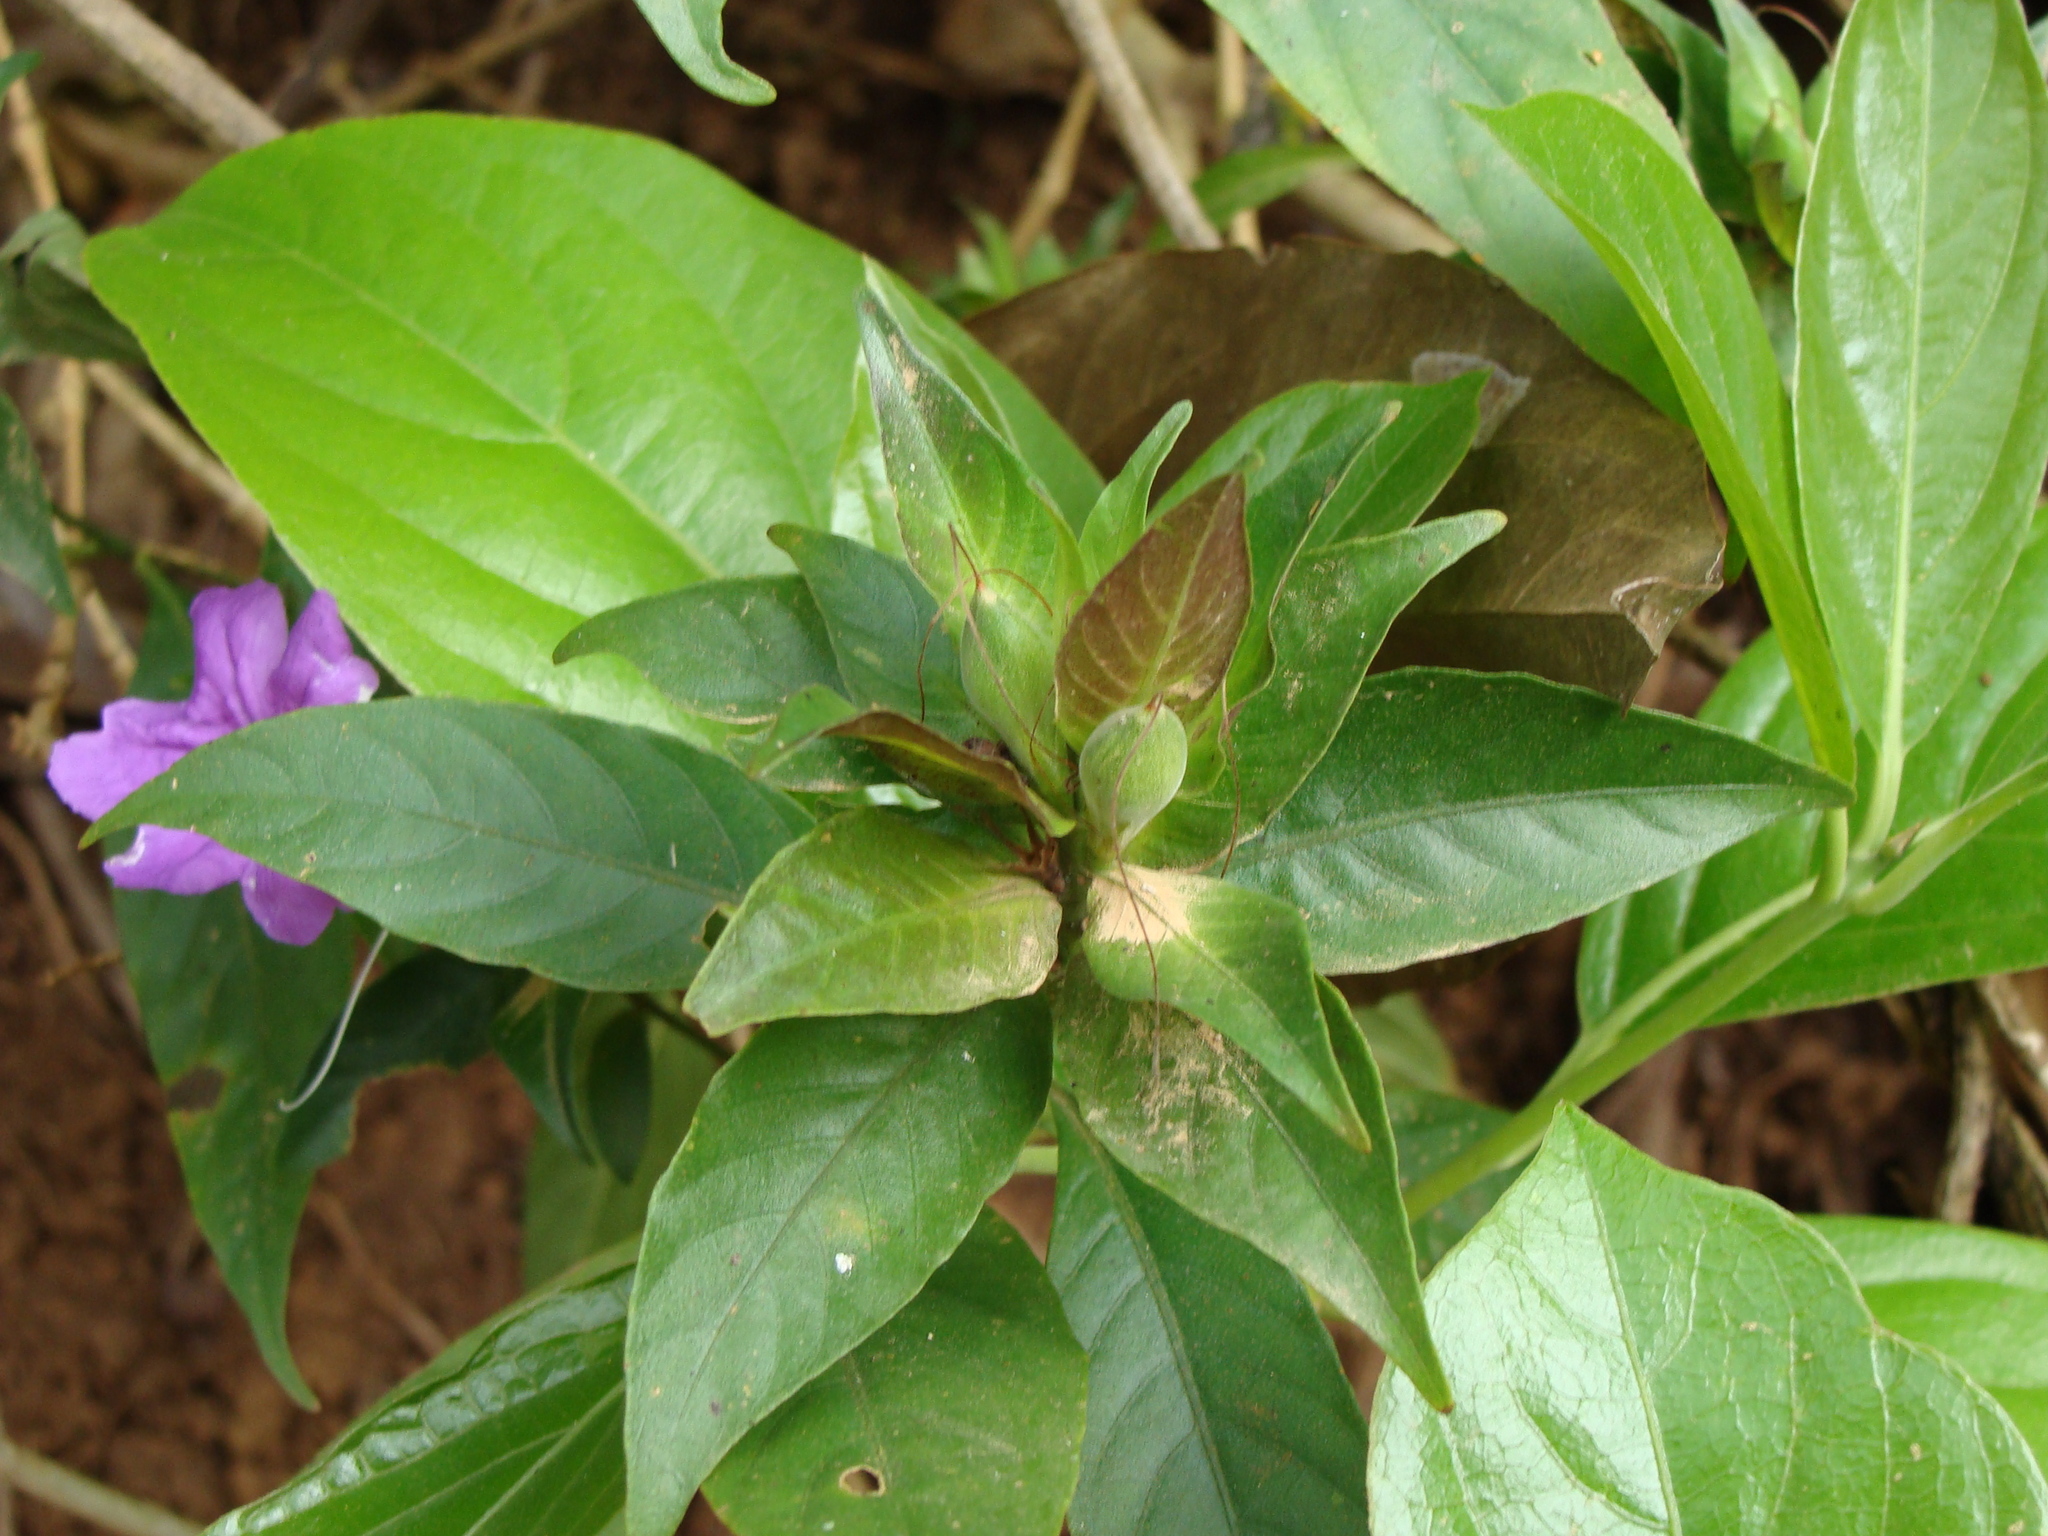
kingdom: Plantae
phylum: Tracheophyta
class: Magnoliopsida
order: Lamiales
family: Acanthaceae
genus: Ruellia
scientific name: Ruellia matagalpae
